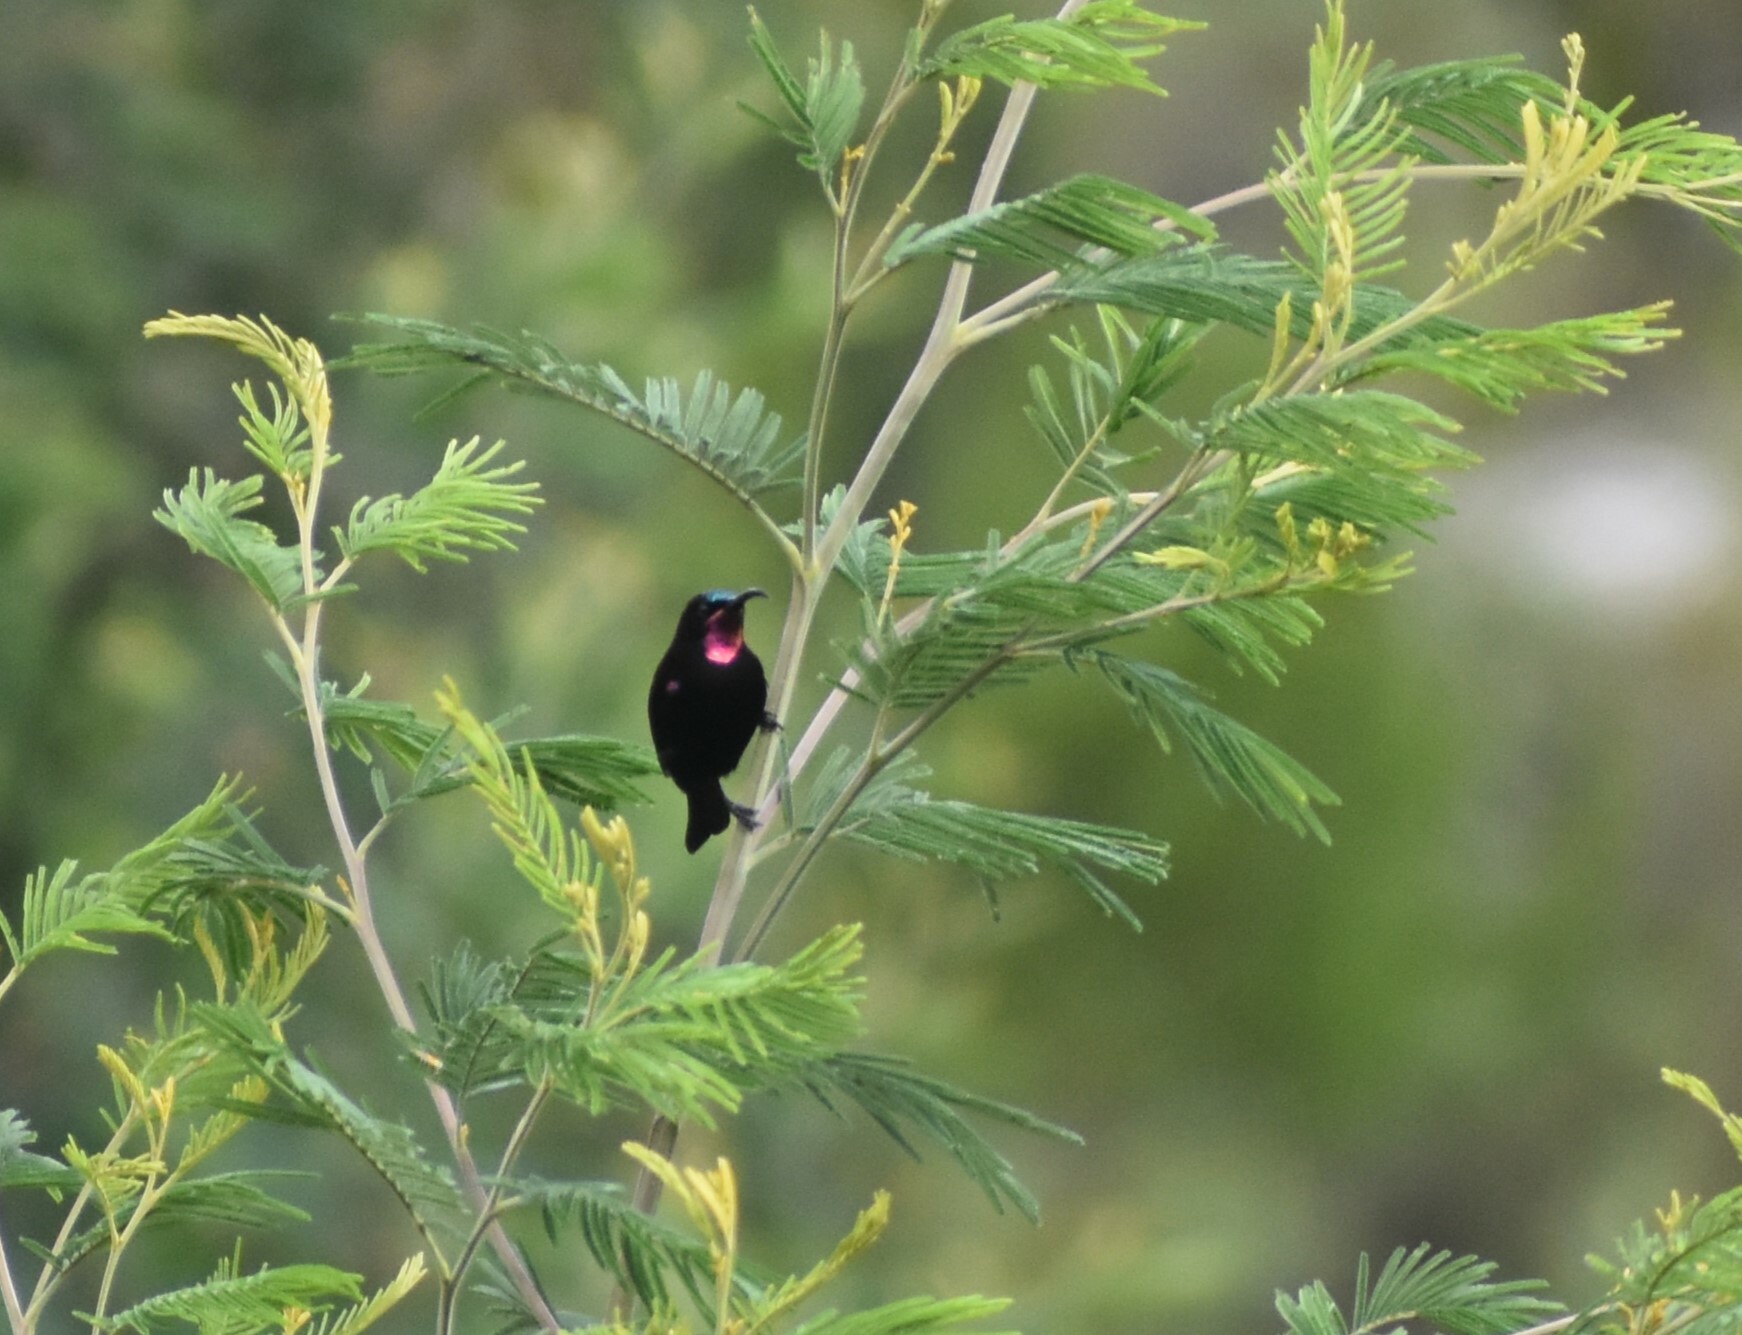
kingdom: Animalia
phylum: Chordata
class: Aves
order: Passeriformes
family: Nectariniidae
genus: Chalcomitra
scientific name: Chalcomitra amethystina
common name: Amethyst sunbird
